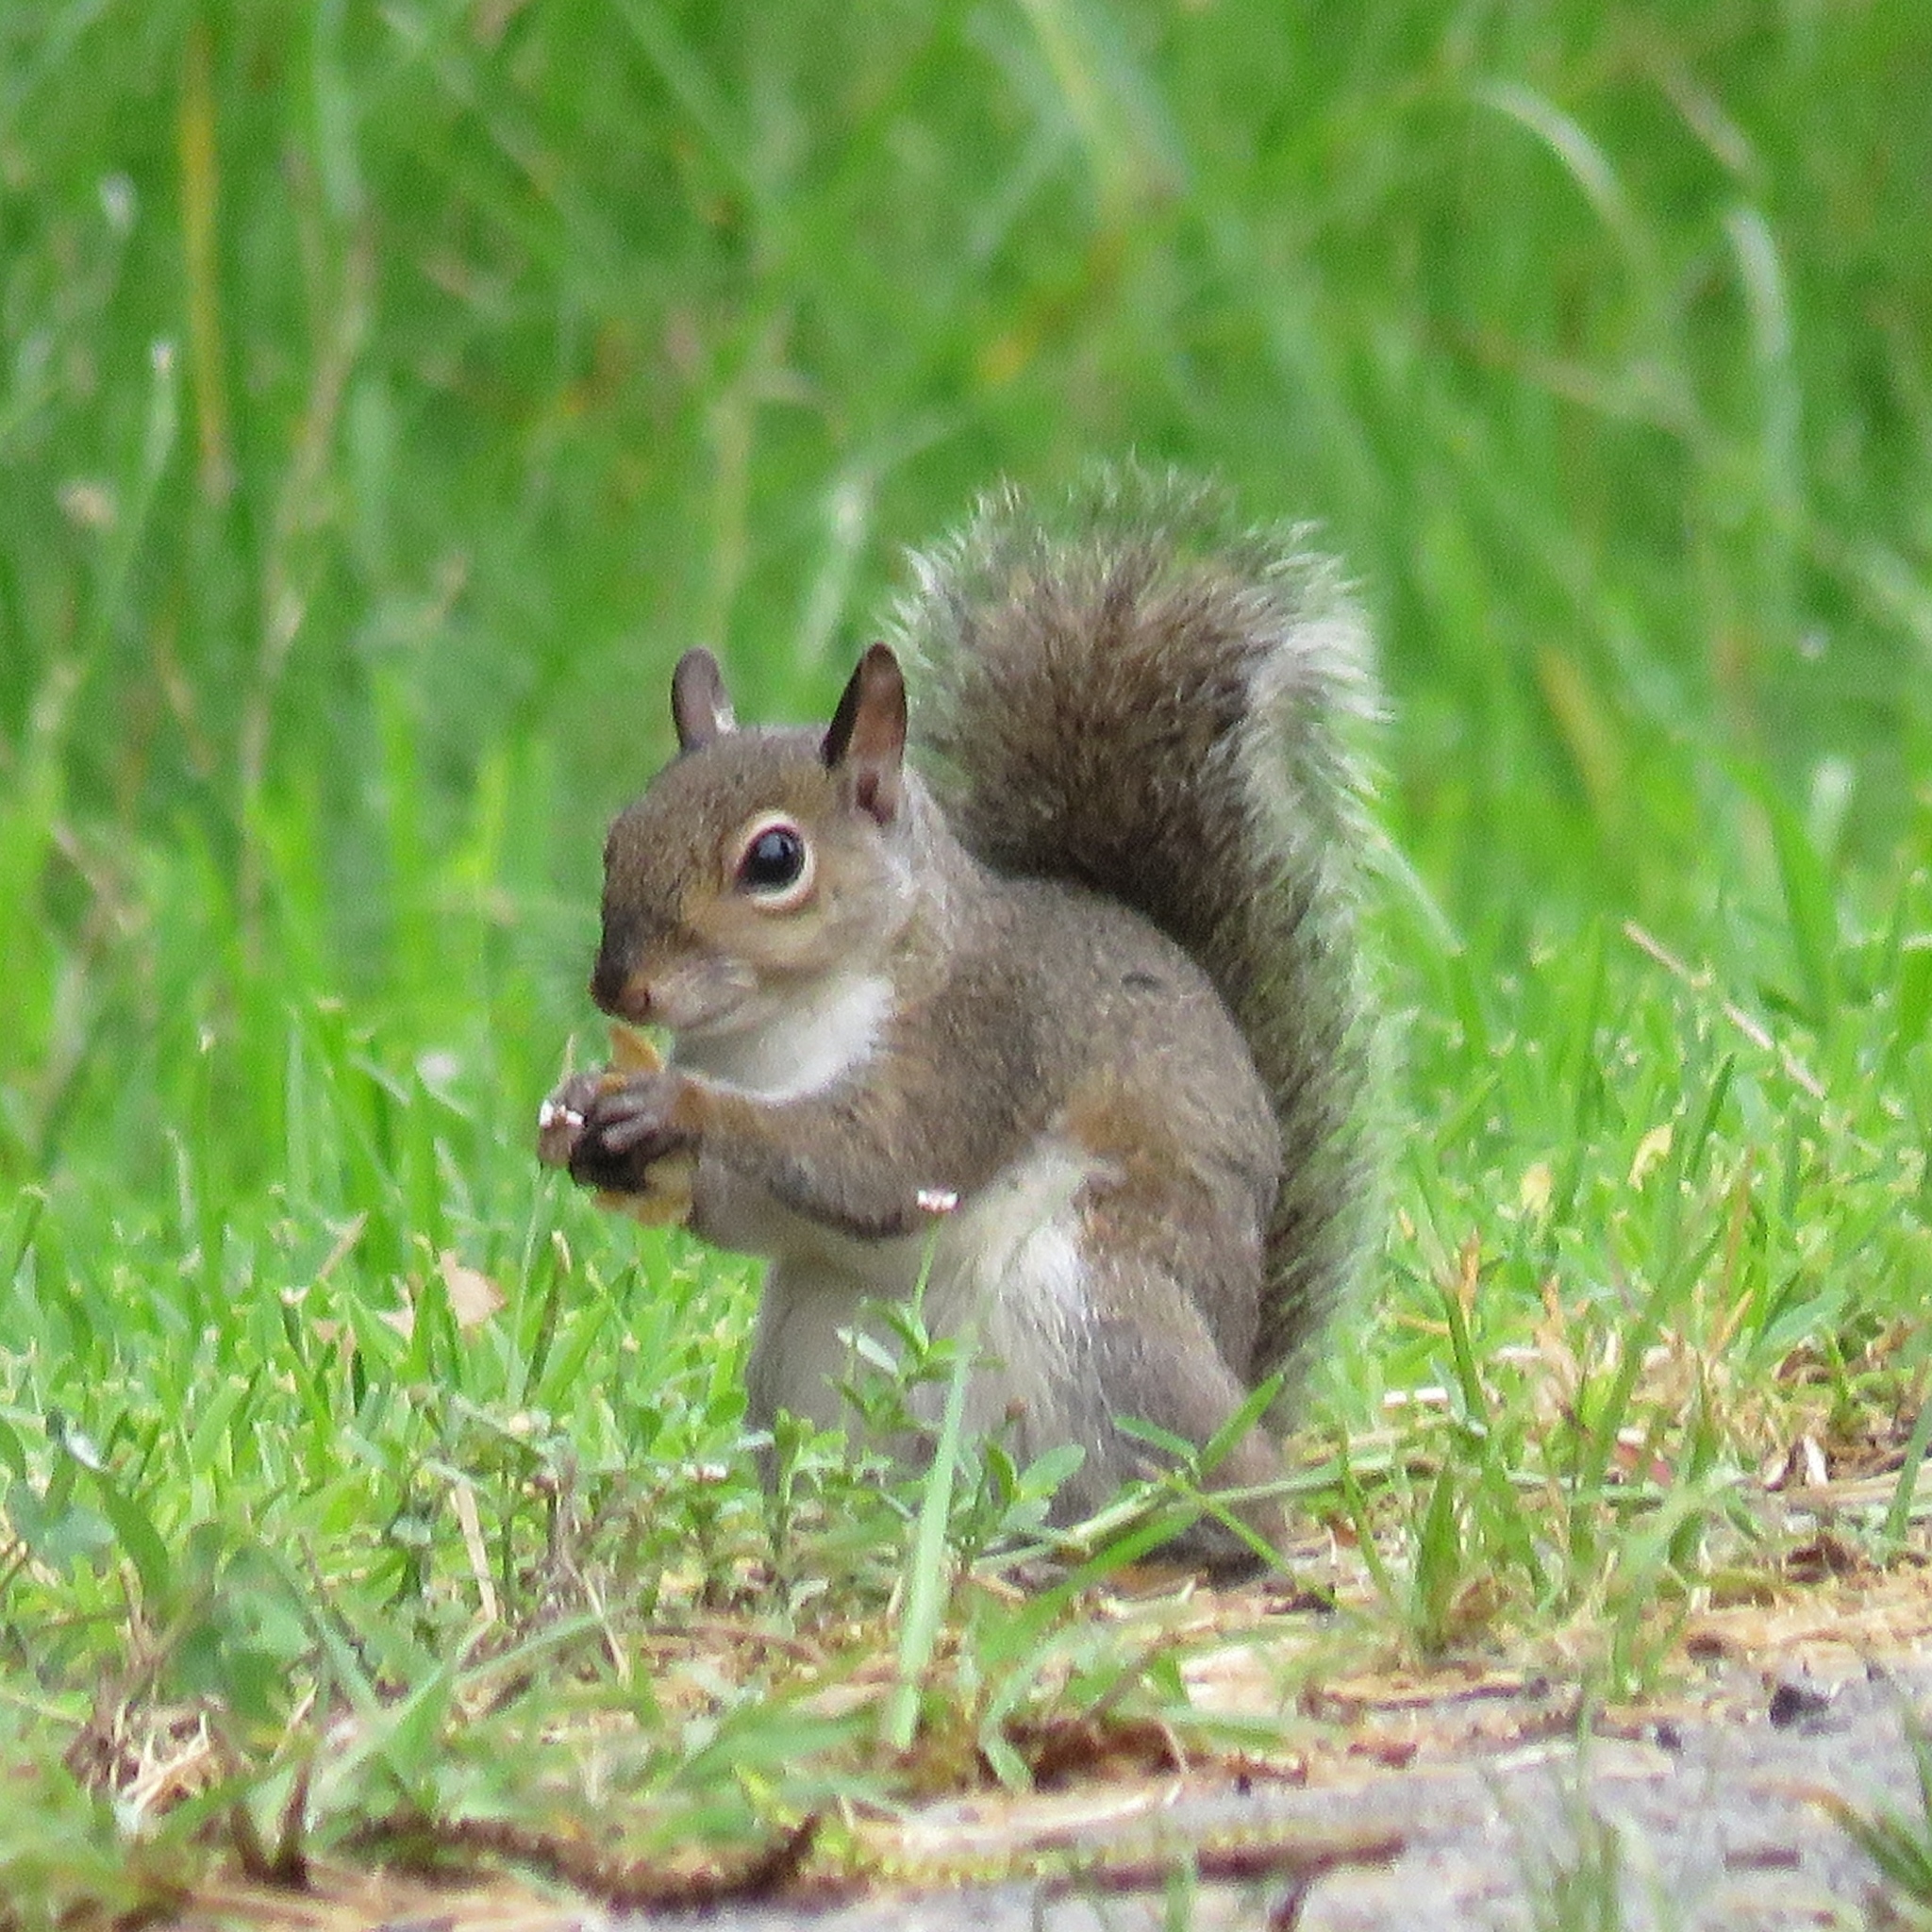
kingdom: Animalia
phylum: Chordata
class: Mammalia
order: Rodentia
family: Sciuridae
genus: Sciurus
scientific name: Sciurus carolinensis
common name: Eastern gray squirrel
